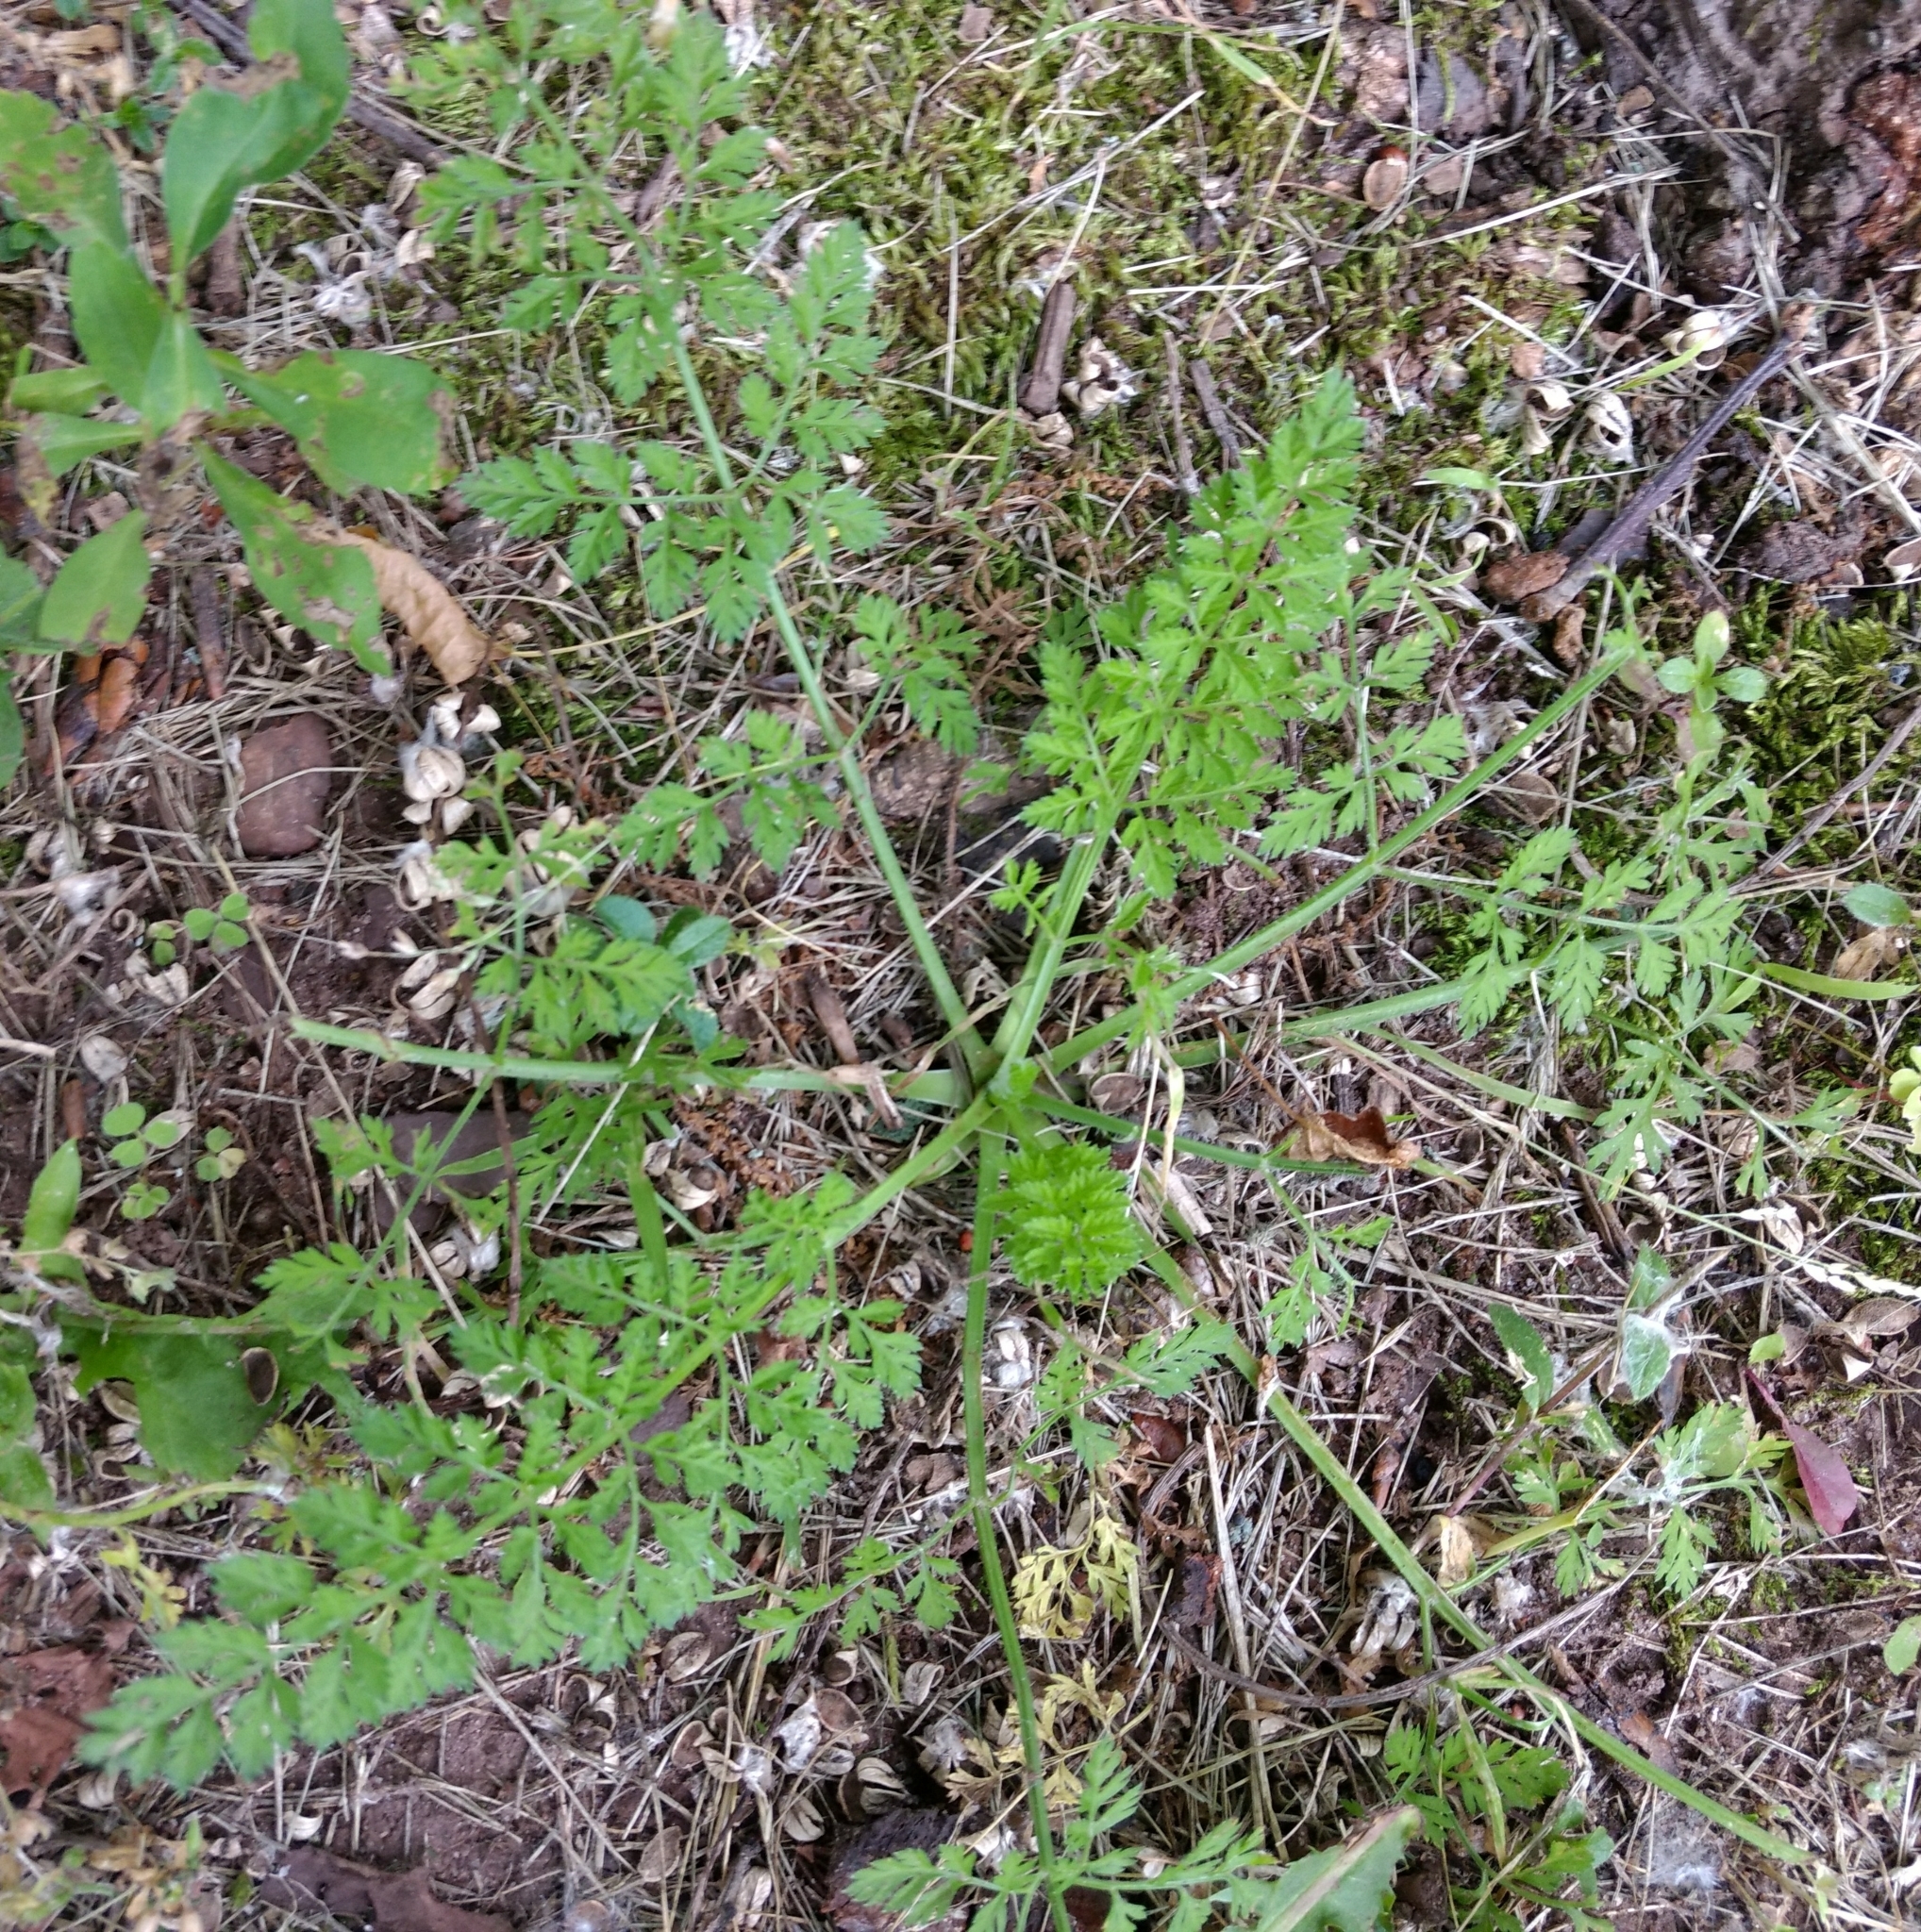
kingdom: Plantae
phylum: Tracheophyta
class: Magnoliopsida
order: Apiales
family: Apiaceae
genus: Daucus
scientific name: Daucus carota
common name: Wild carrot
